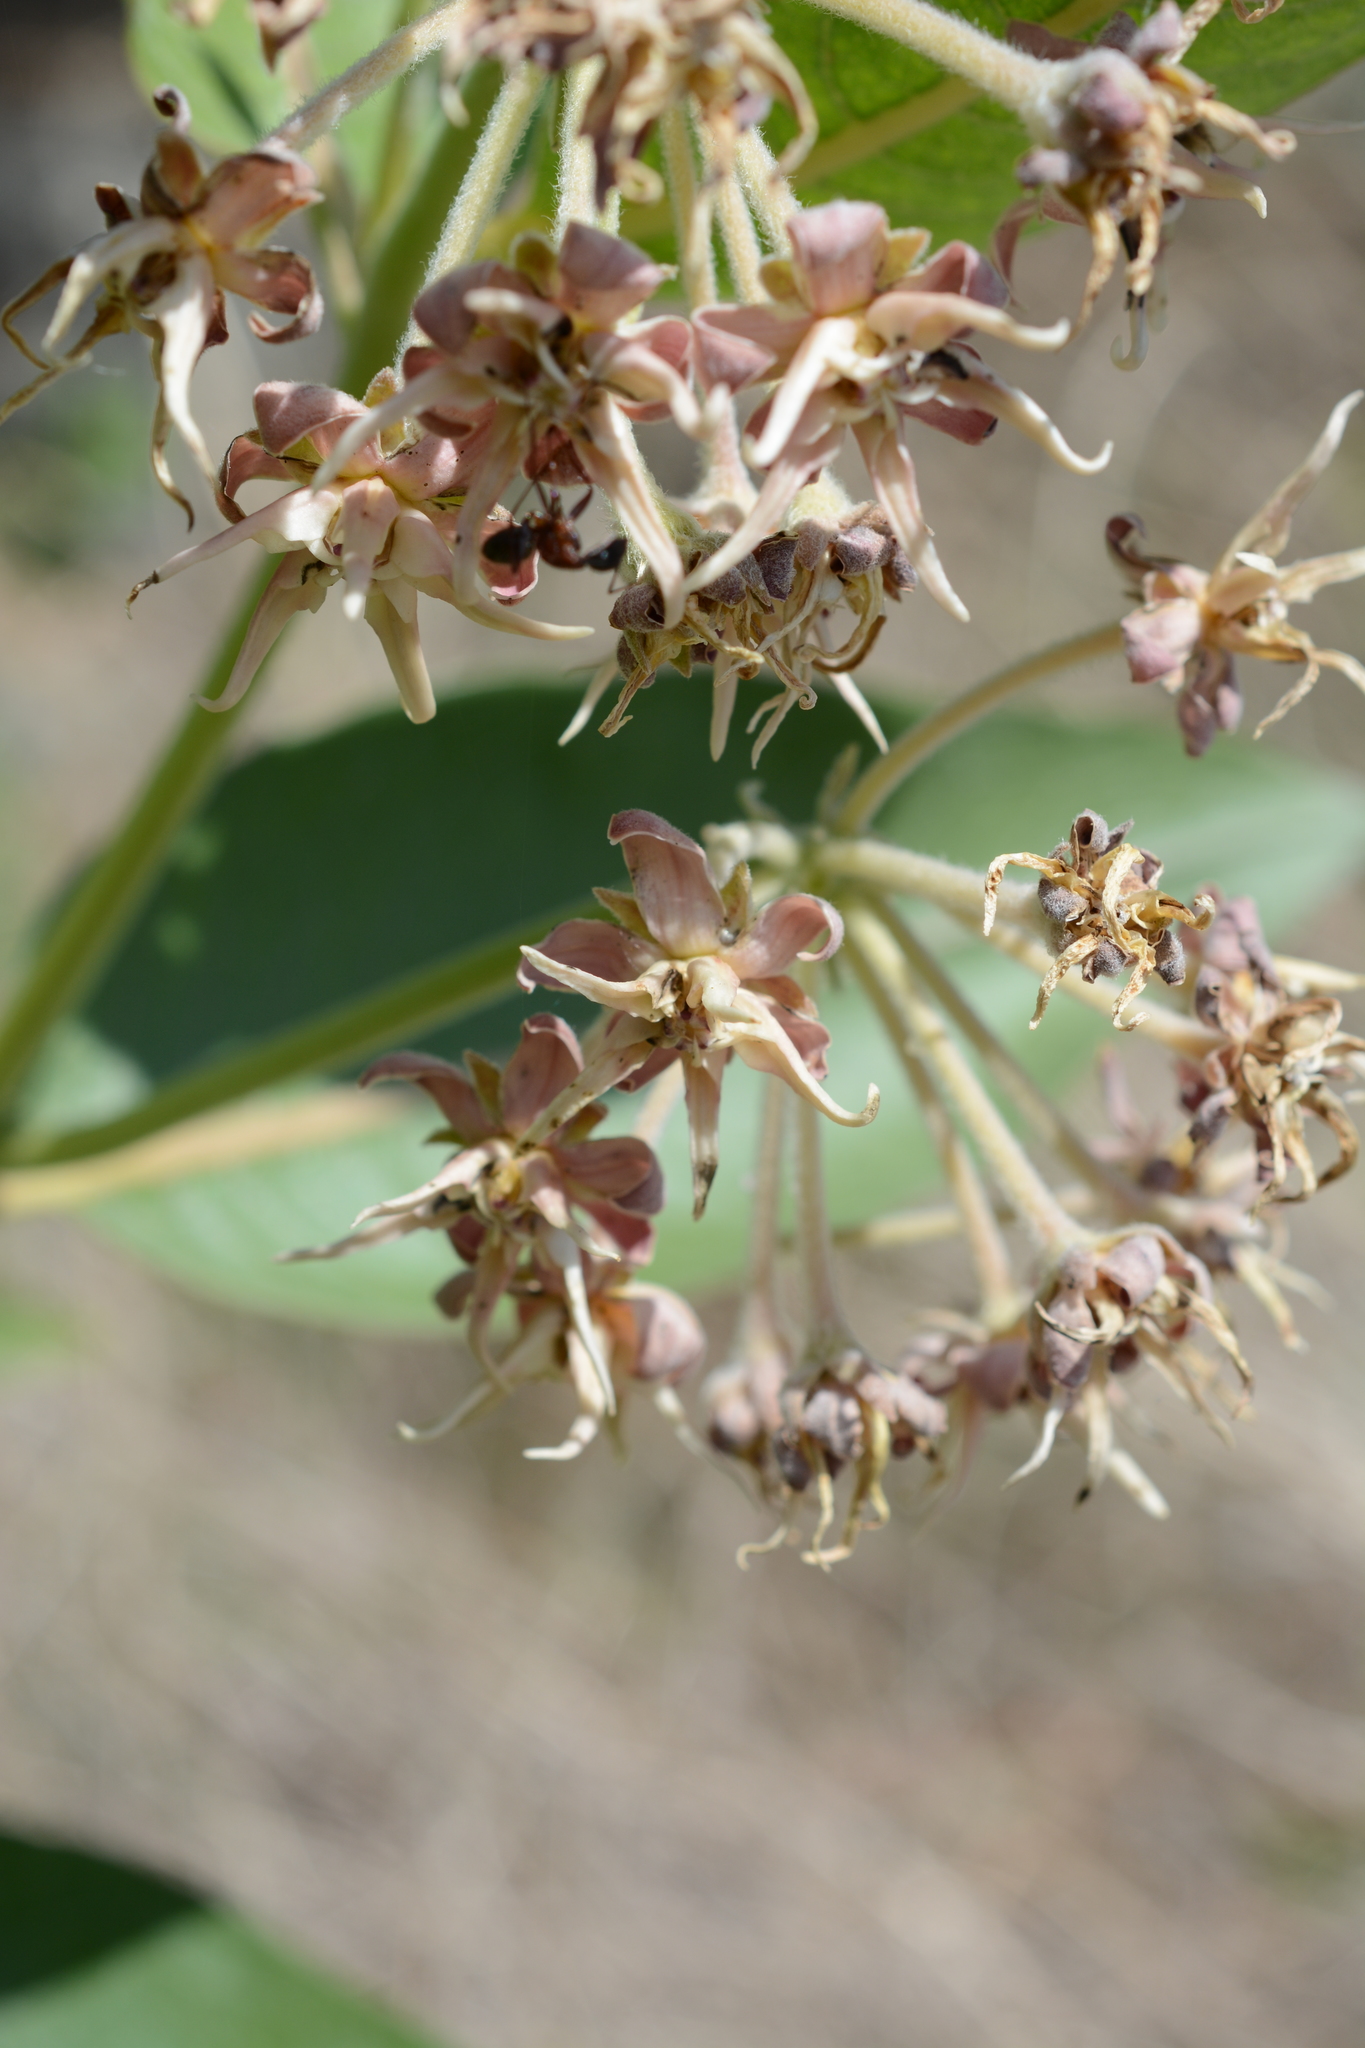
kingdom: Plantae
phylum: Tracheophyta
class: Magnoliopsida
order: Gentianales
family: Apocynaceae
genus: Asclepias
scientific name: Asclepias speciosa
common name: Showy milkweed
